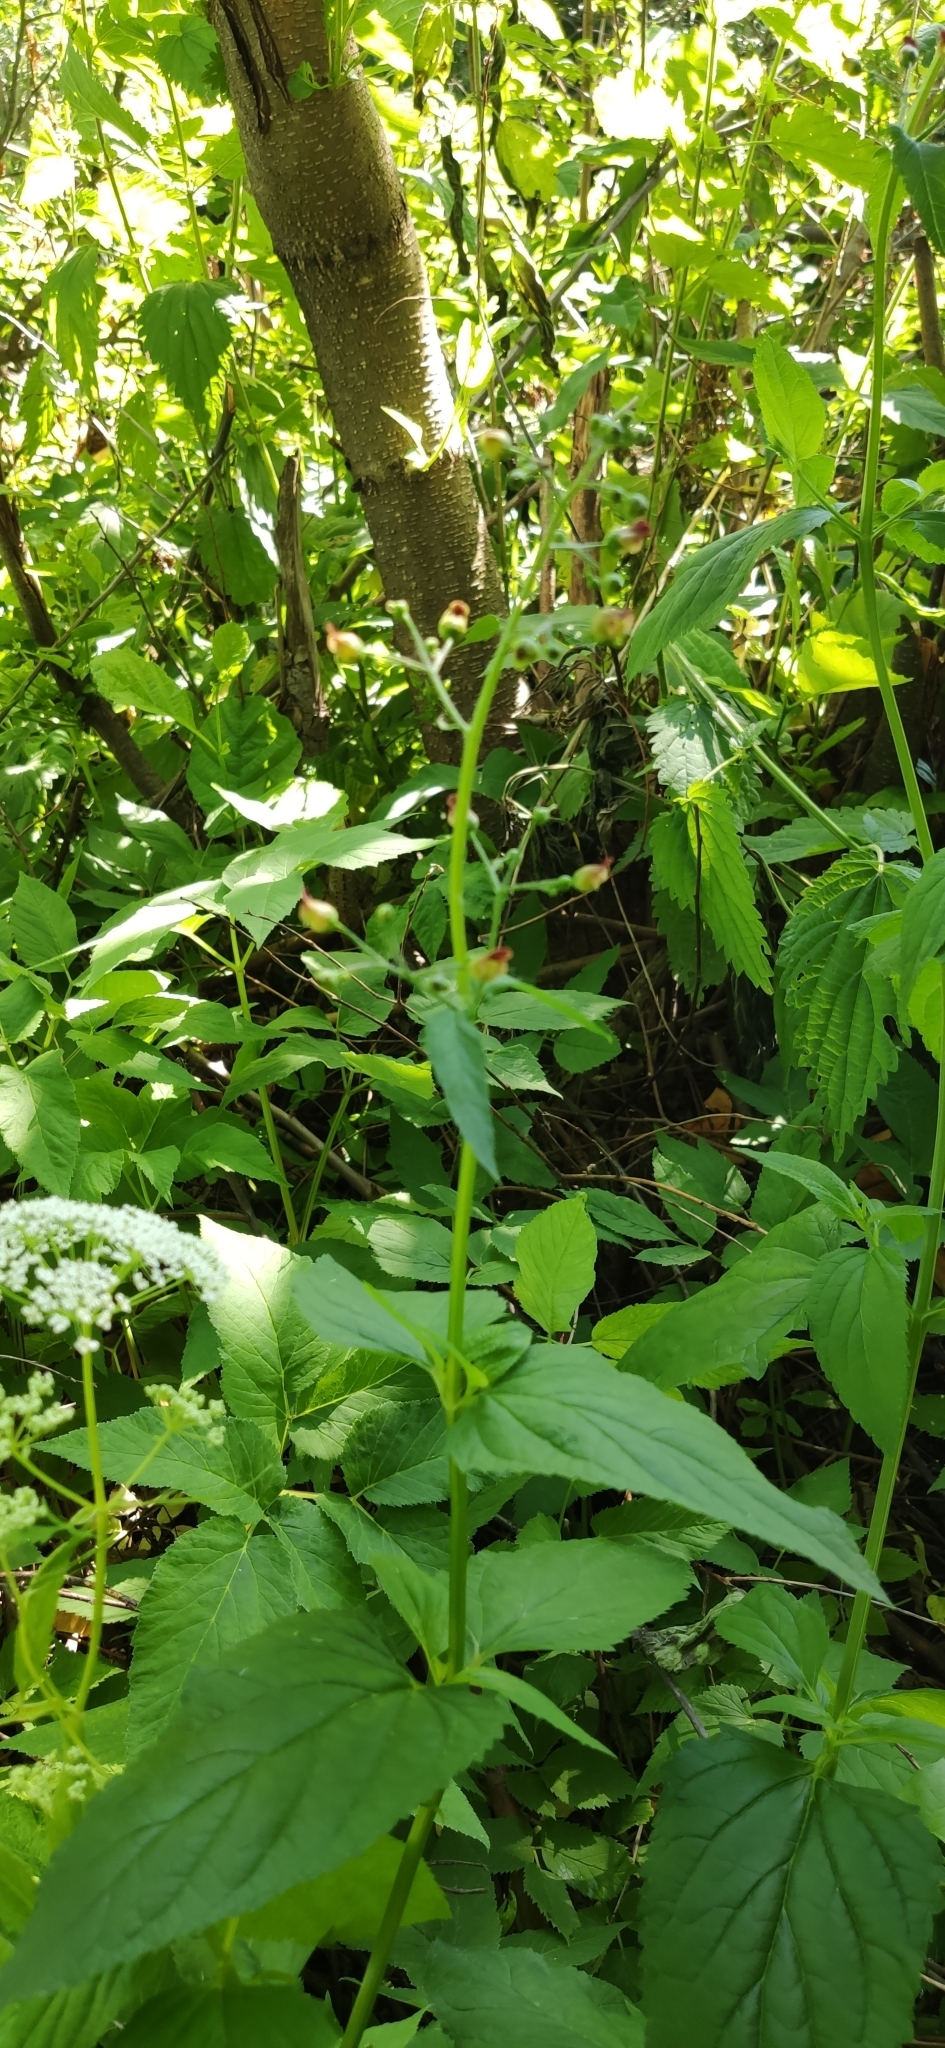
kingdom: Plantae
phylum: Tracheophyta
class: Magnoliopsida
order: Lamiales
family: Scrophulariaceae
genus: Scrophularia
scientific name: Scrophularia nodosa
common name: Common figwort
